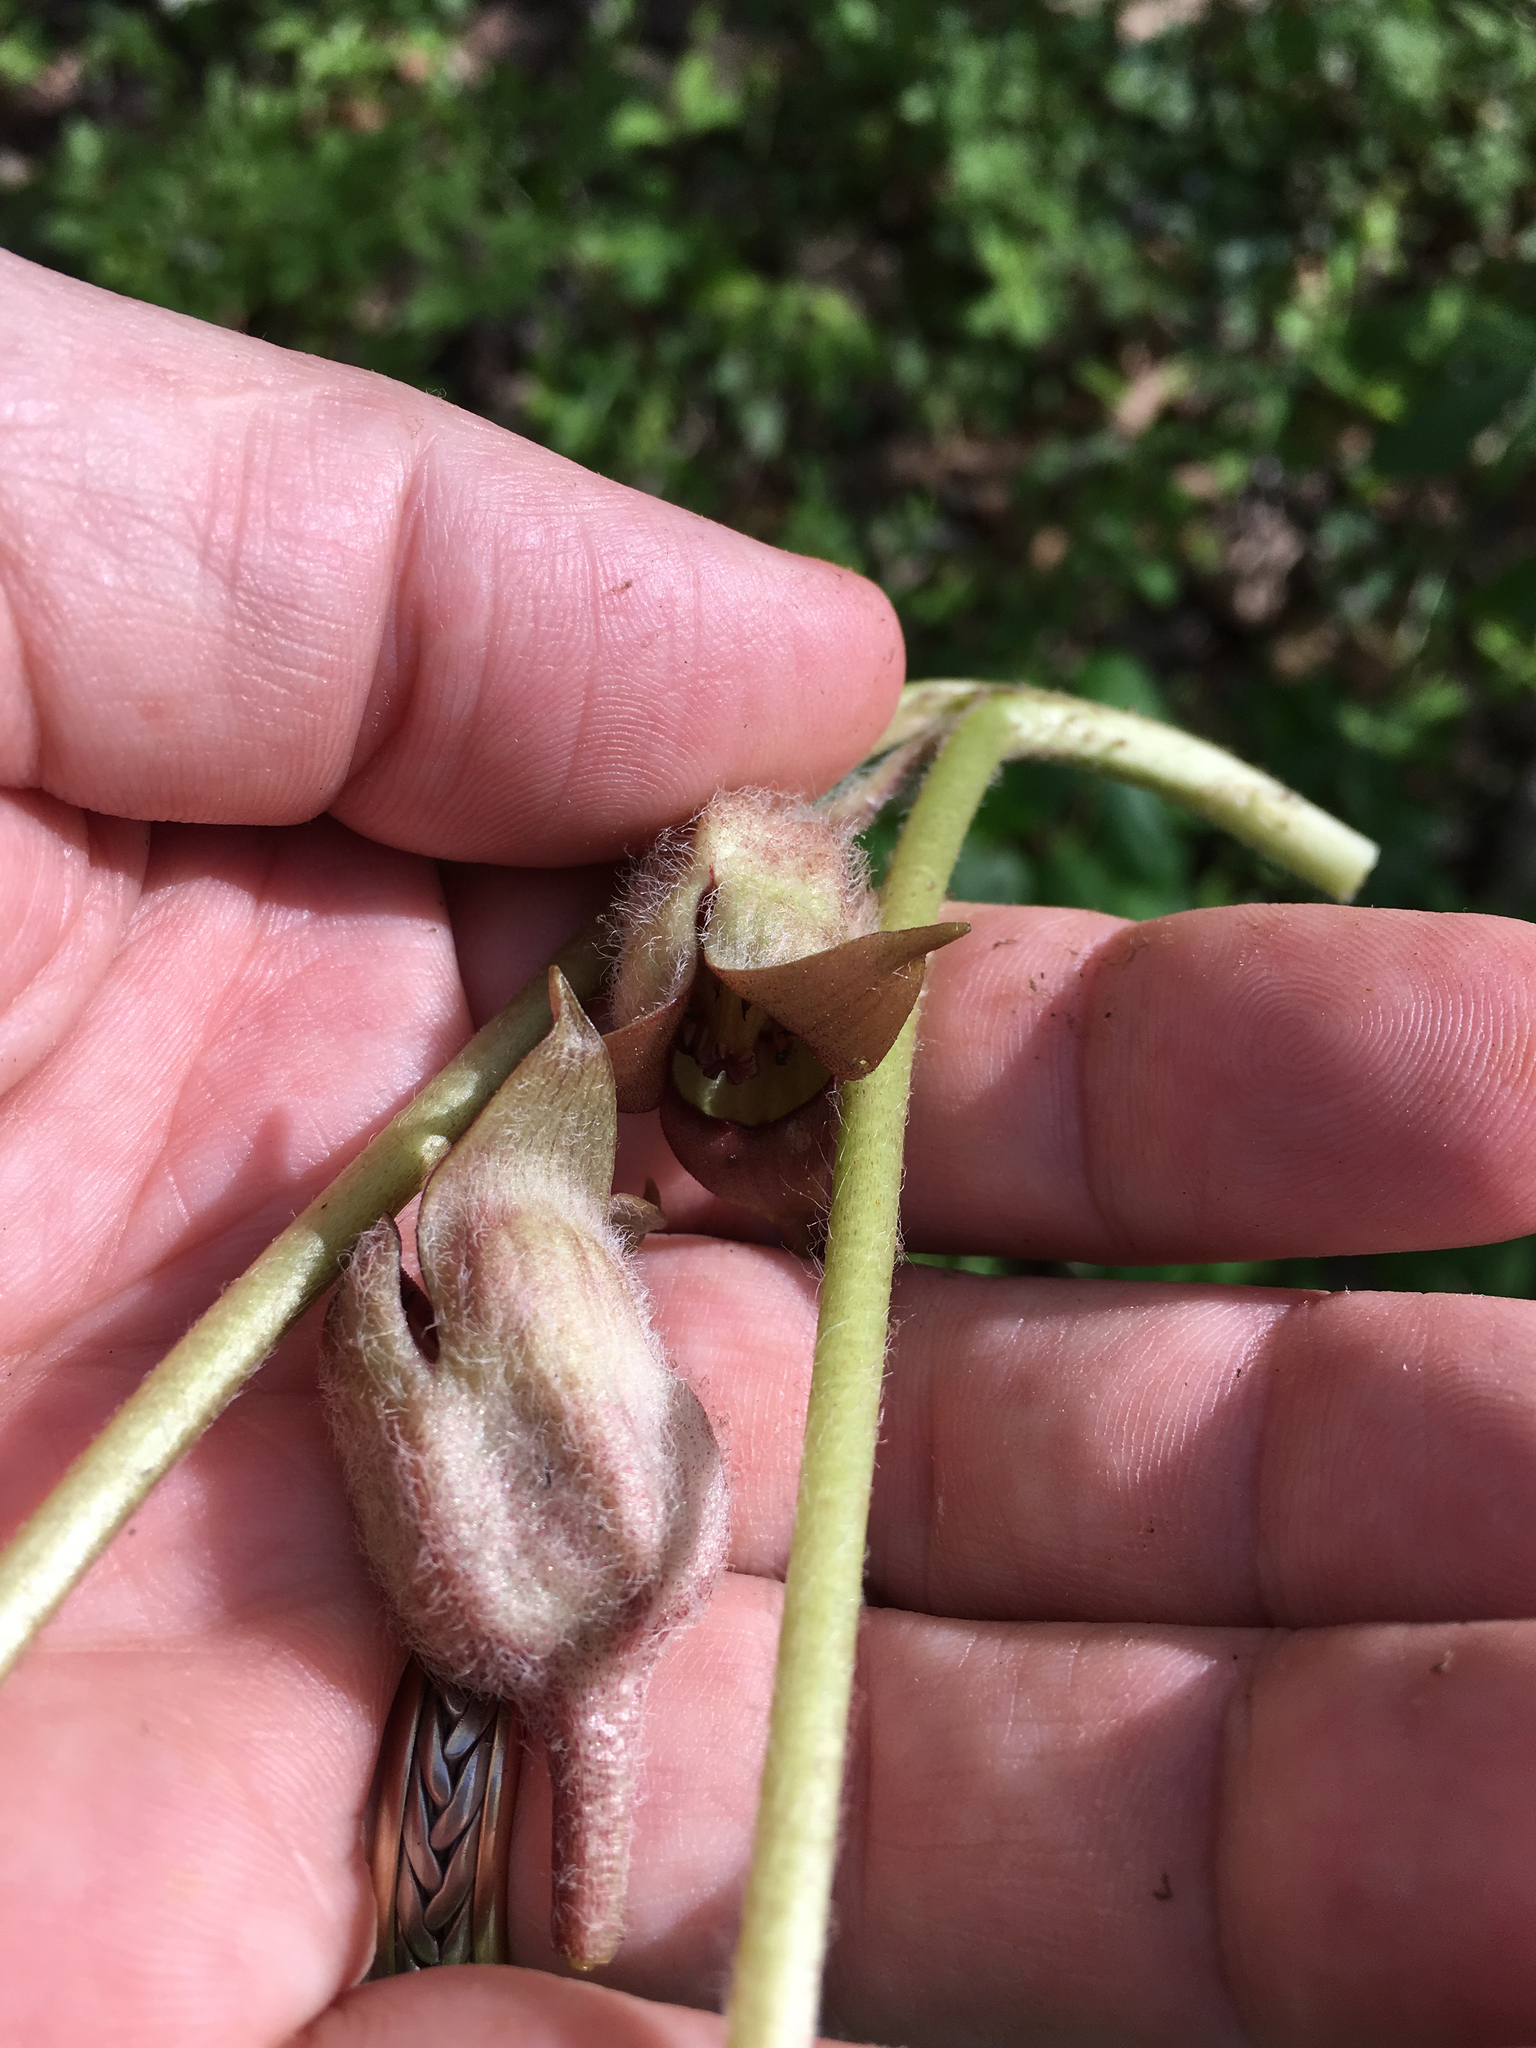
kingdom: Plantae
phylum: Tracheophyta
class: Magnoliopsida
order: Piperales
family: Aristolochiaceae
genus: Asarum
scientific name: Asarum canadense
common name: Wild ginger
